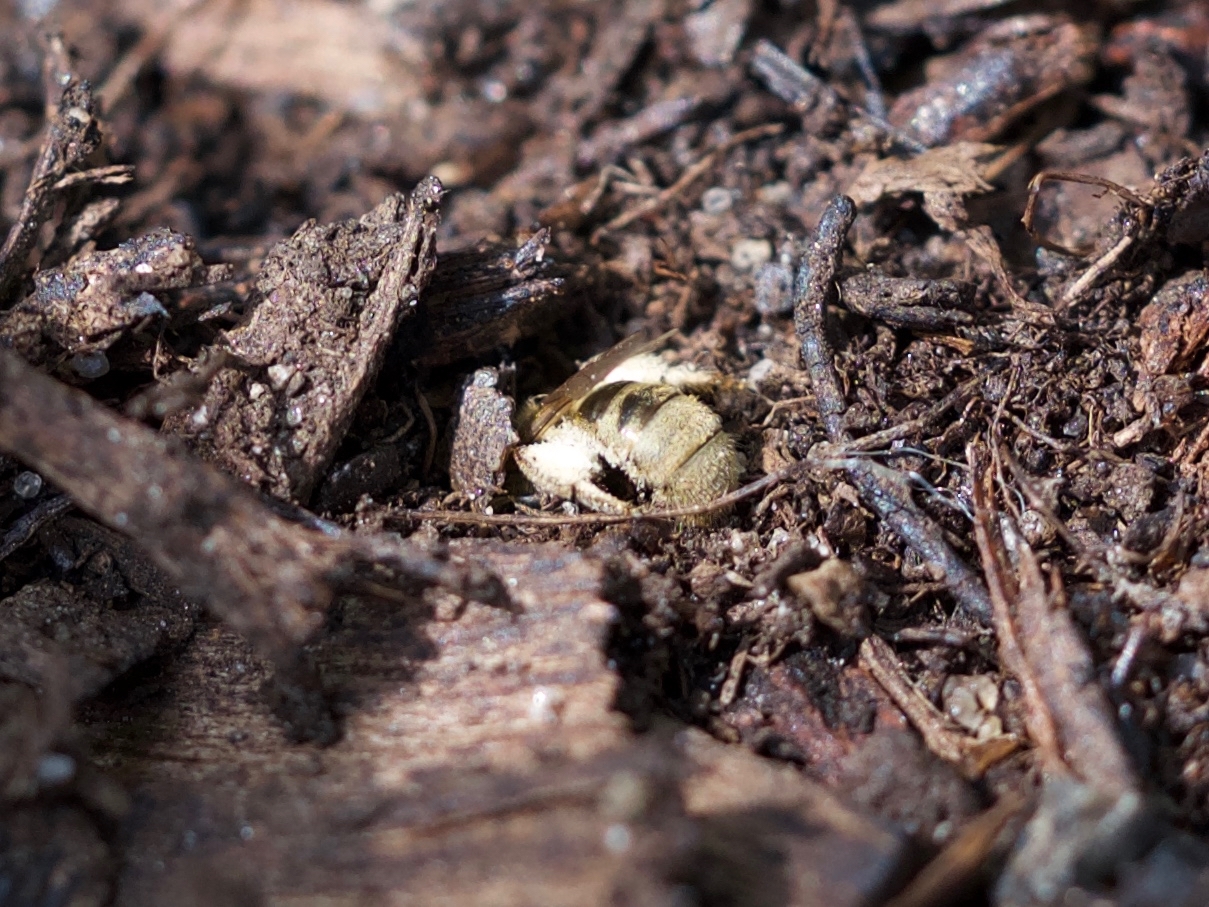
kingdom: Animalia
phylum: Arthropoda
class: Insecta
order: Hymenoptera
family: Halictidae
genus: Dialictus
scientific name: Dialictus
